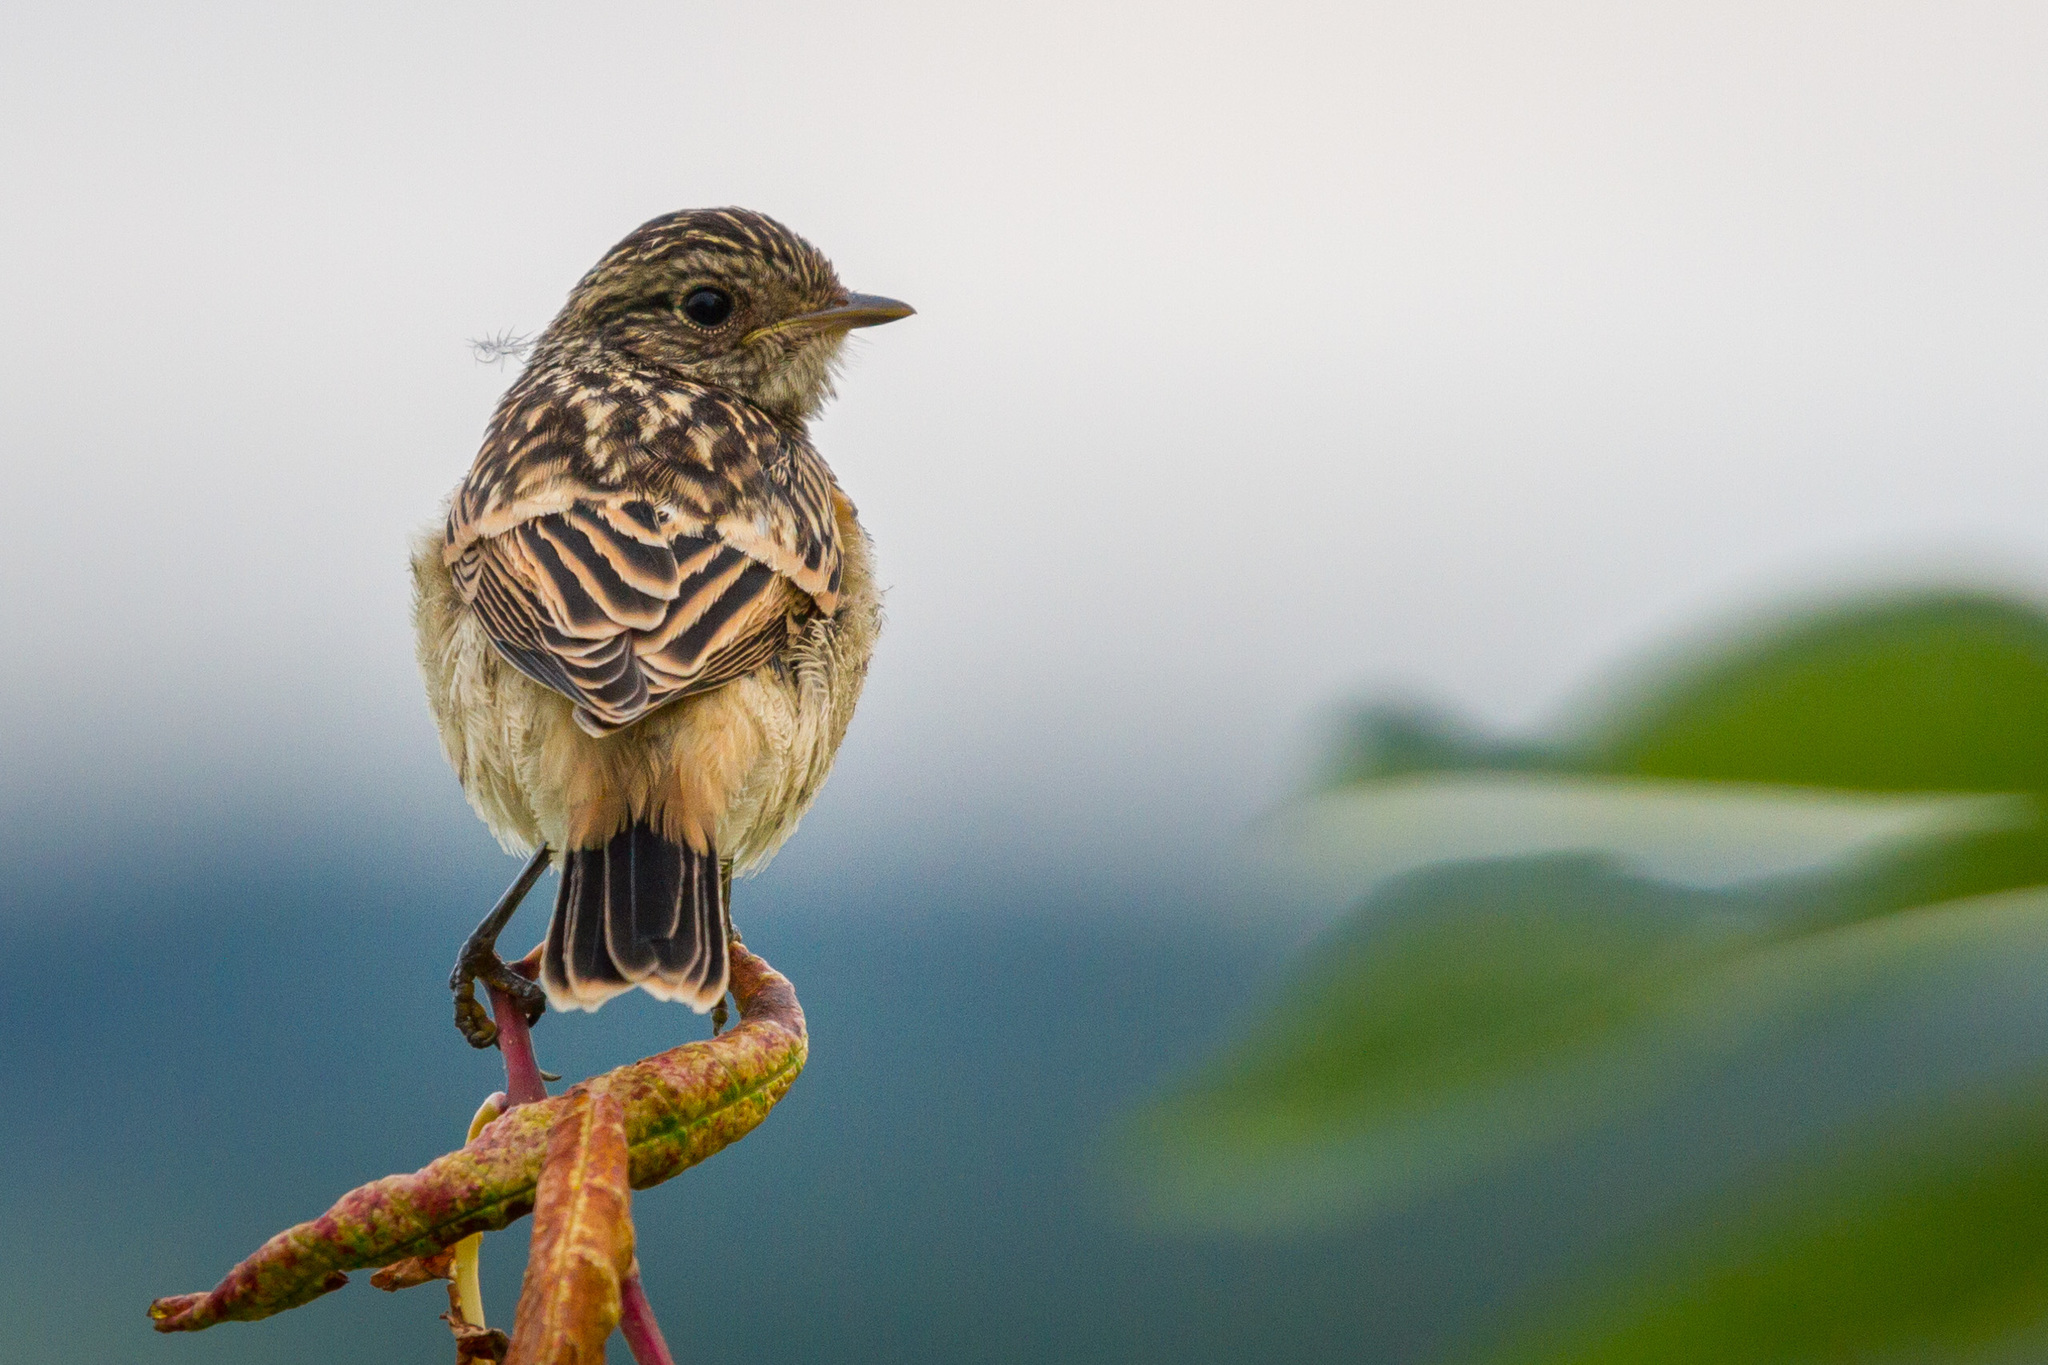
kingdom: Animalia
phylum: Chordata
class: Aves
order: Passeriformes
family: Muscicapidae
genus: Saxicola
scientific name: Saxicola maurus
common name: Siberian stonechat
